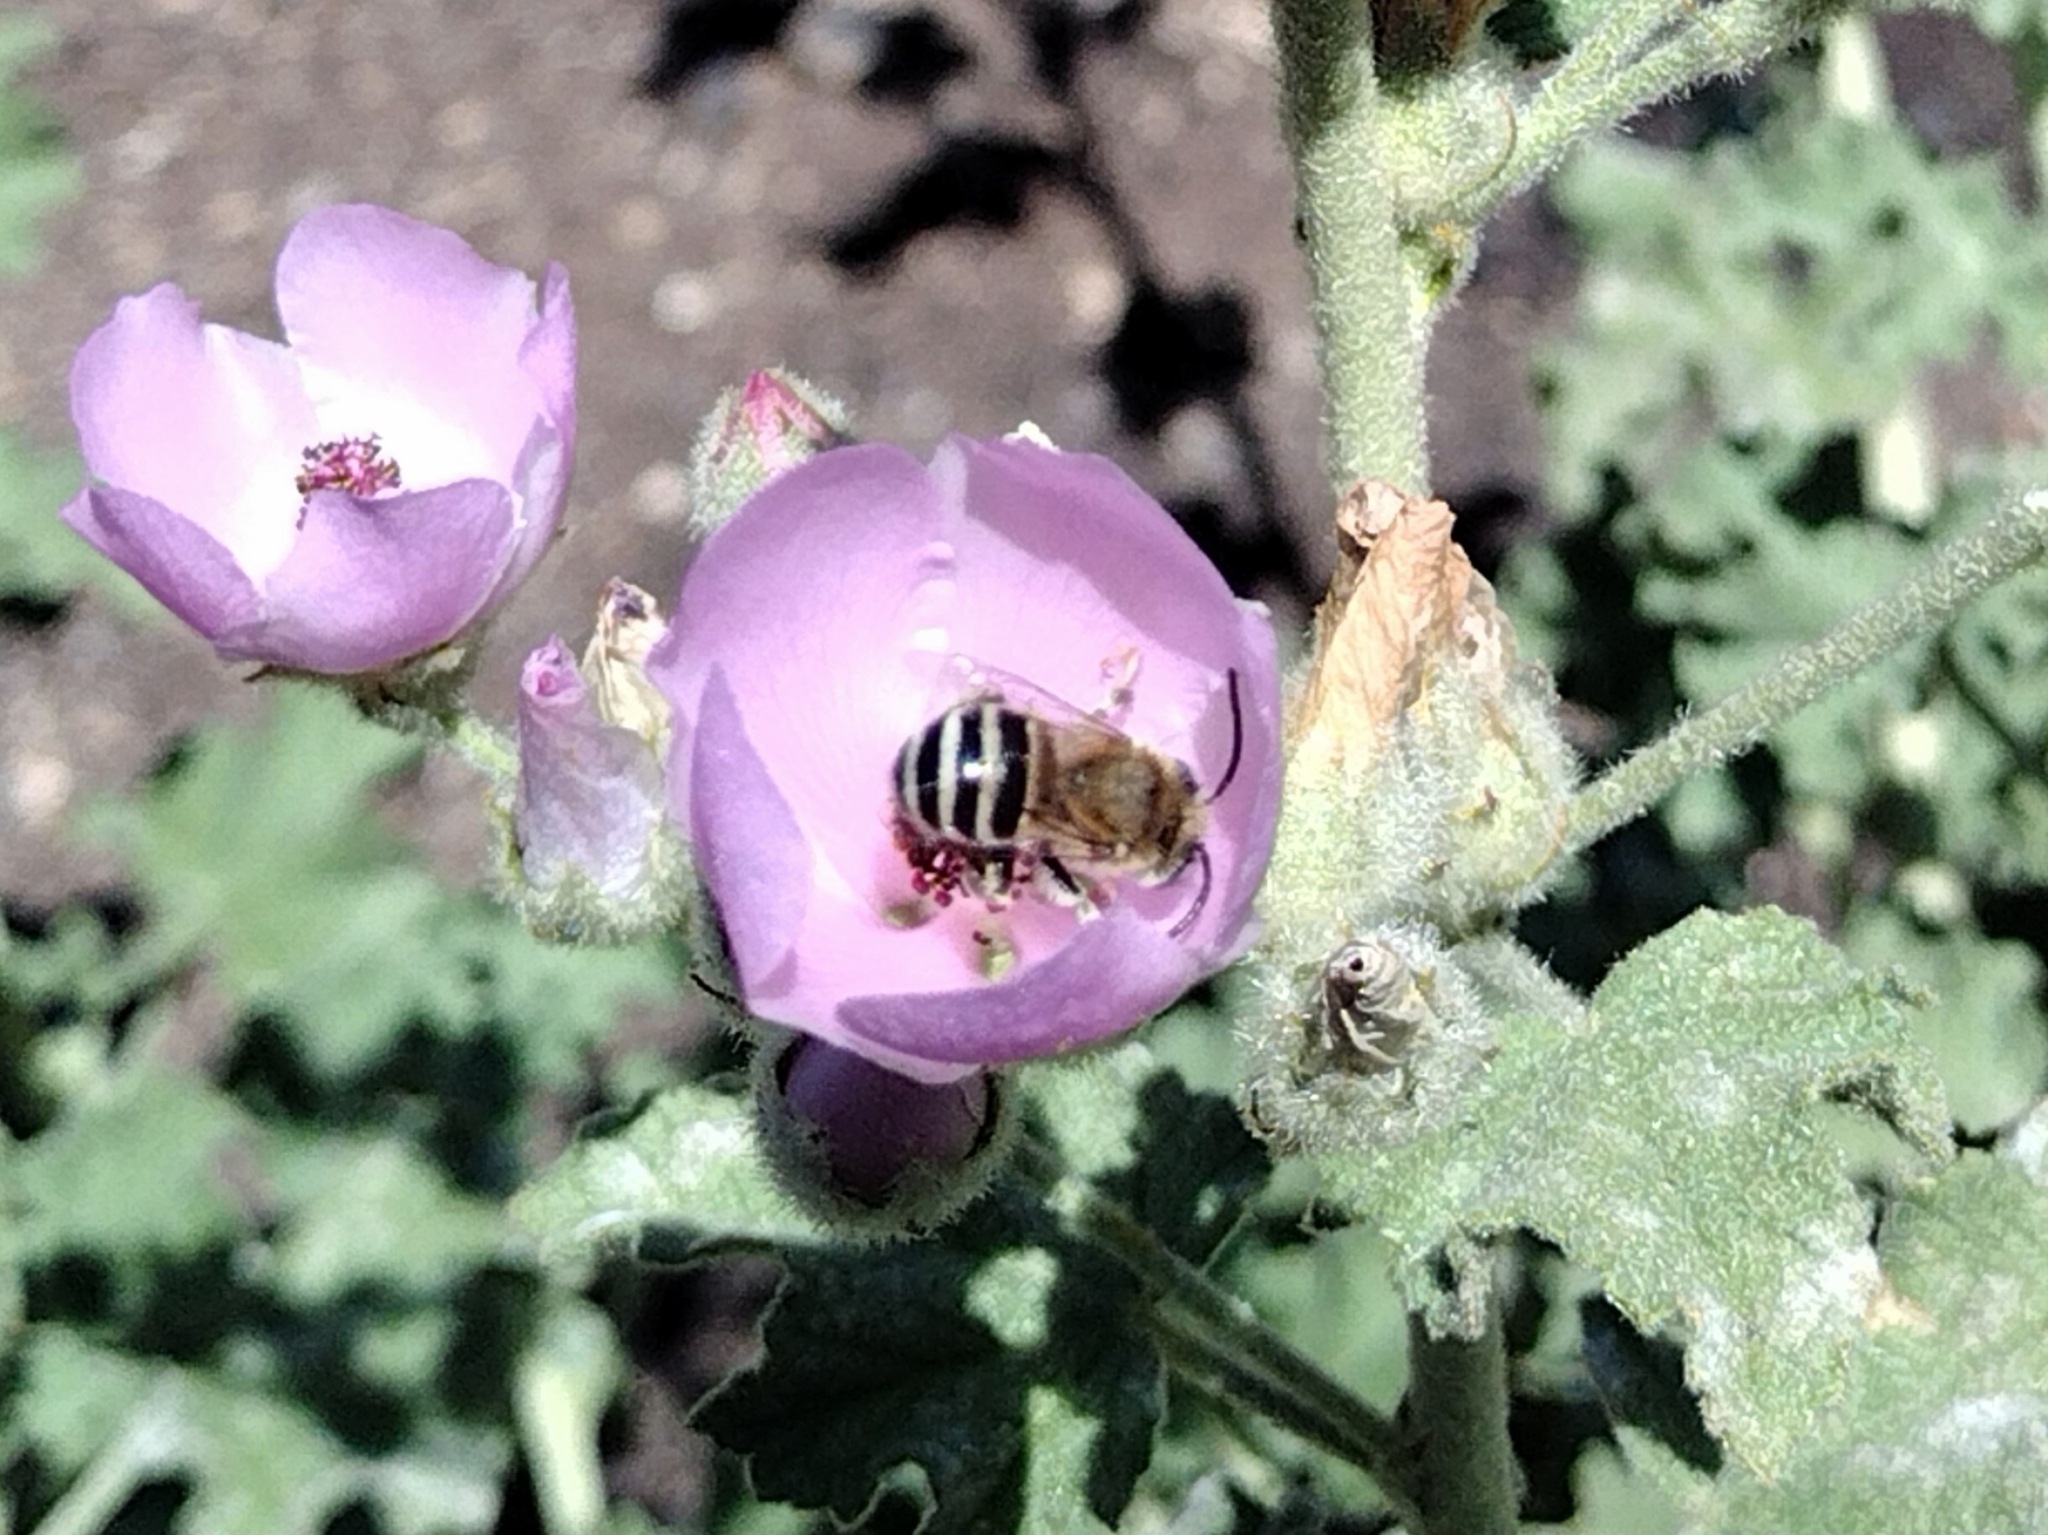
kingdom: Animalia
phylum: Arthropoda
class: Insecta
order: Hymenoptera
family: Apidae
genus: Anthophora
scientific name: Anthophora urbana
